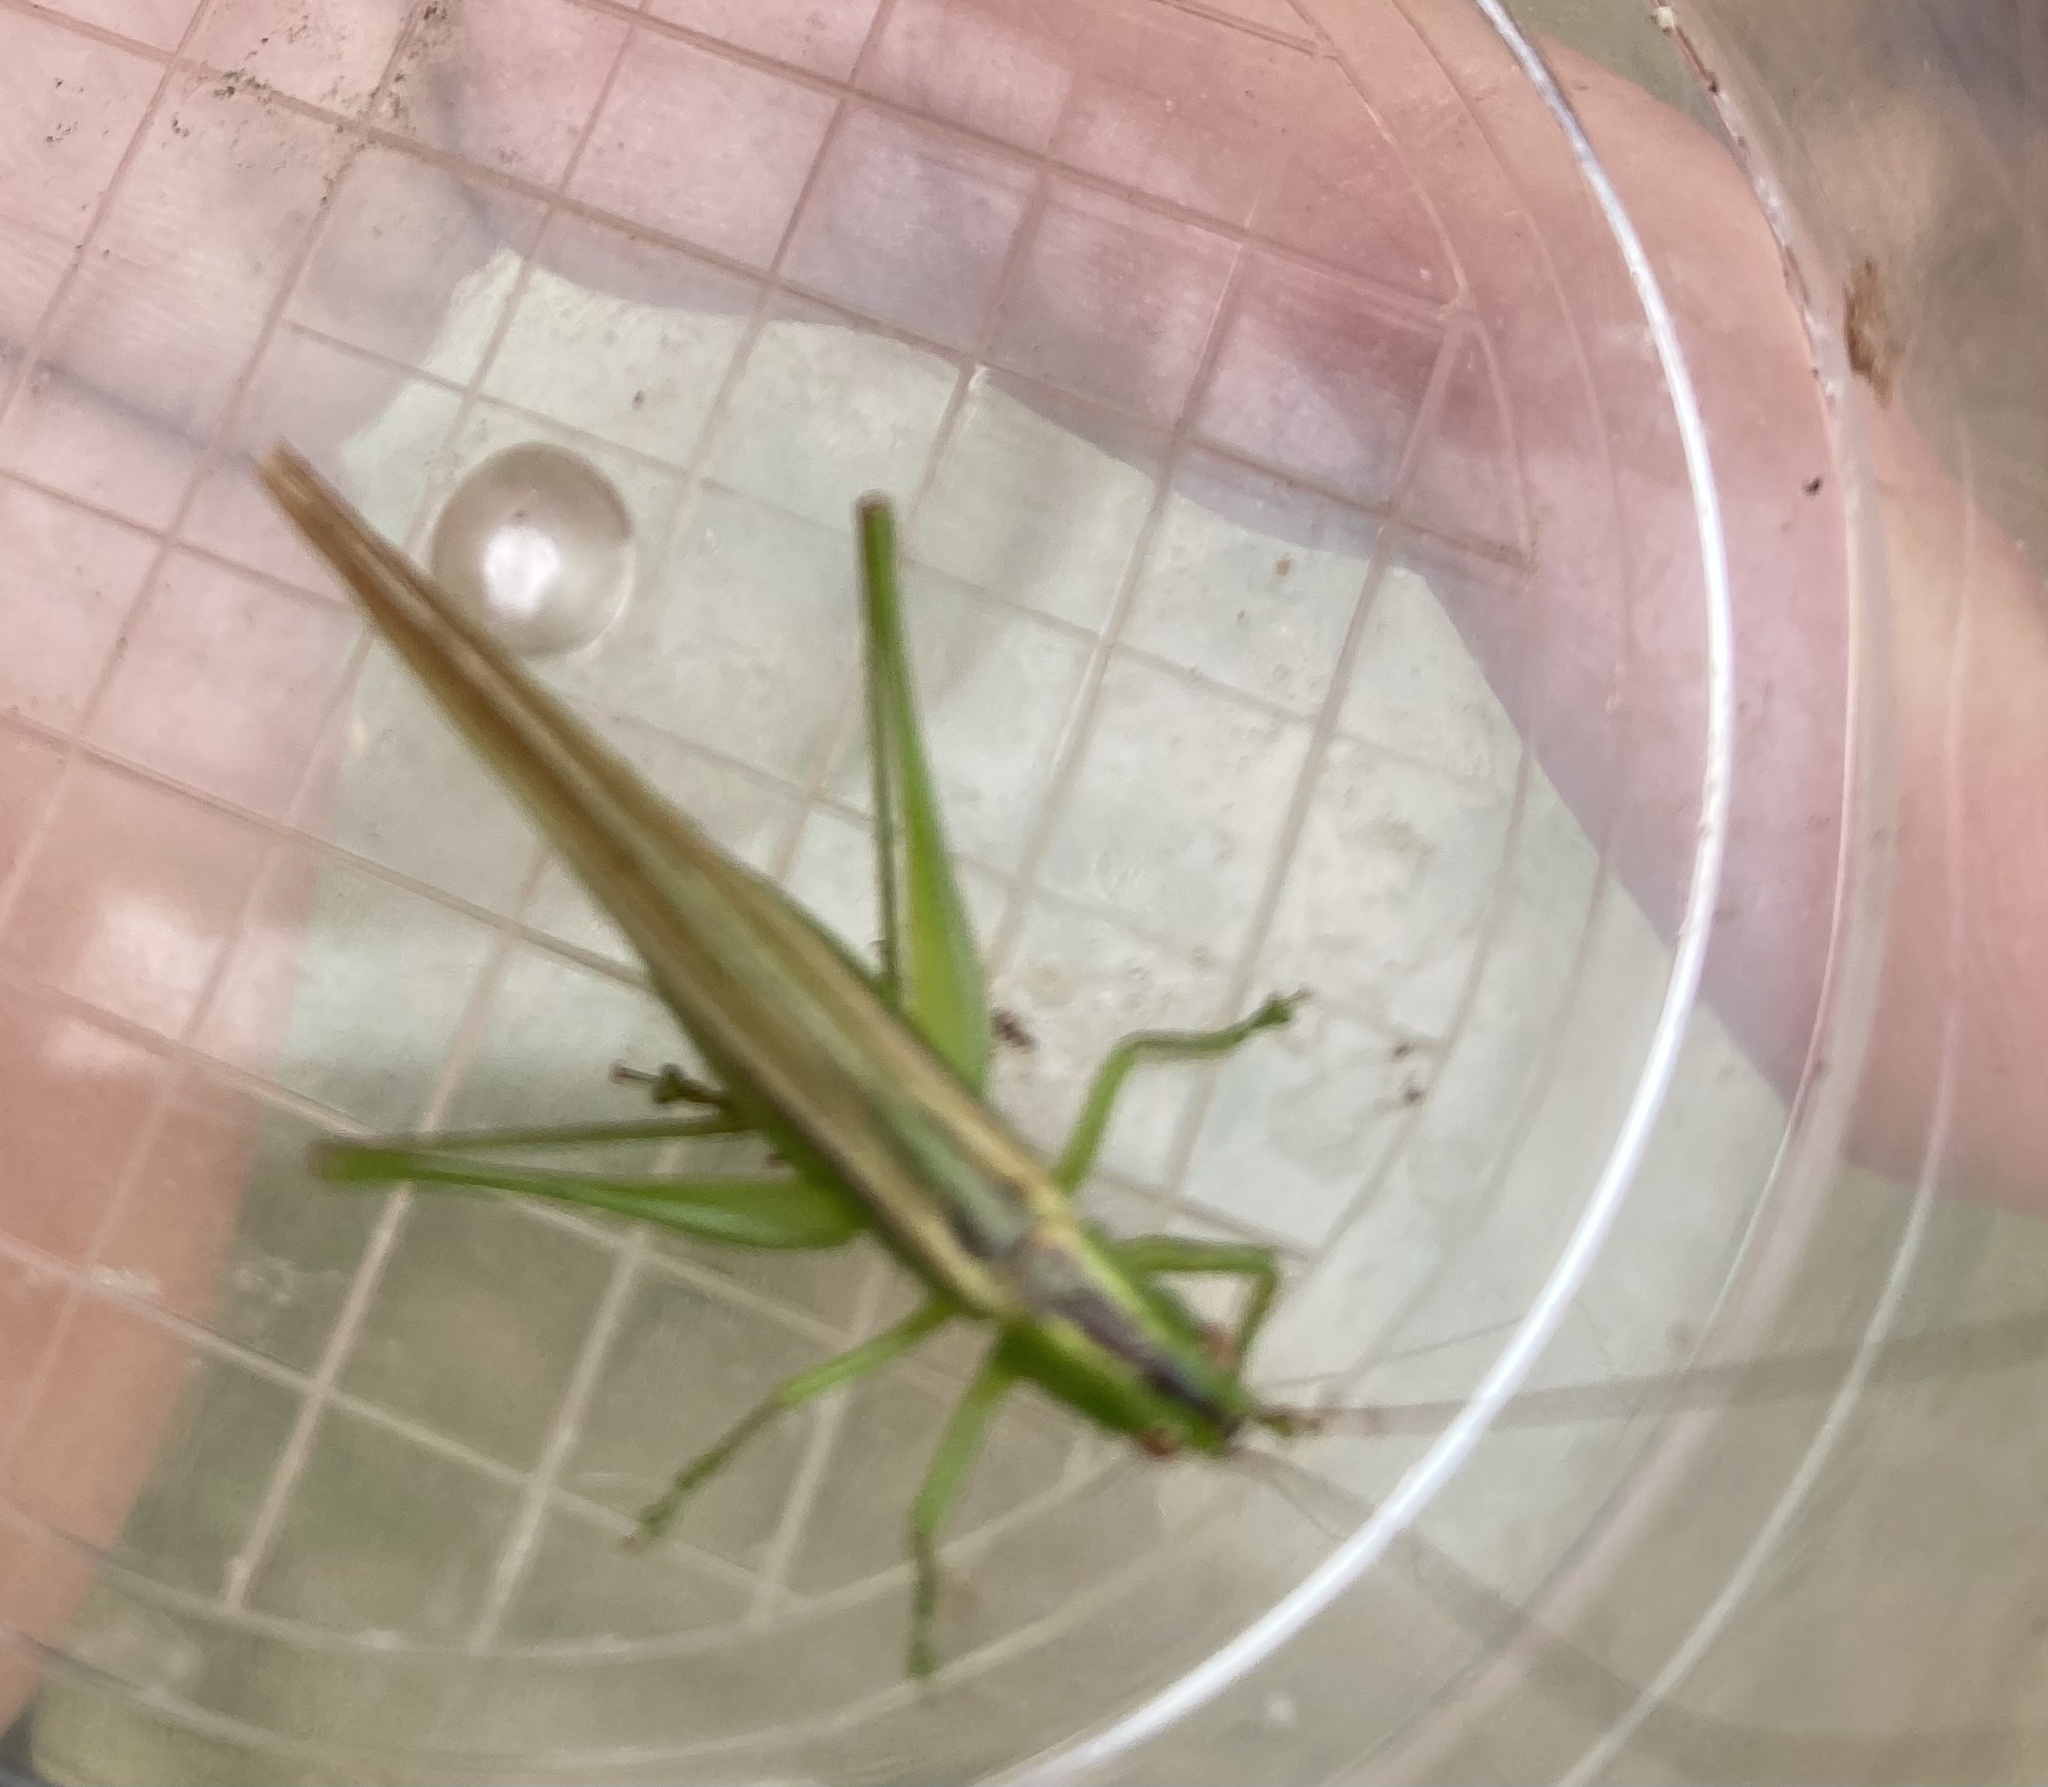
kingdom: Animalia
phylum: Arthropoda
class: Insecta
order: Orthoptera
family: Tettigoniidae
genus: Conocephalus
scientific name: Conocephalus fasciatus
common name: Slender meadow katydid
